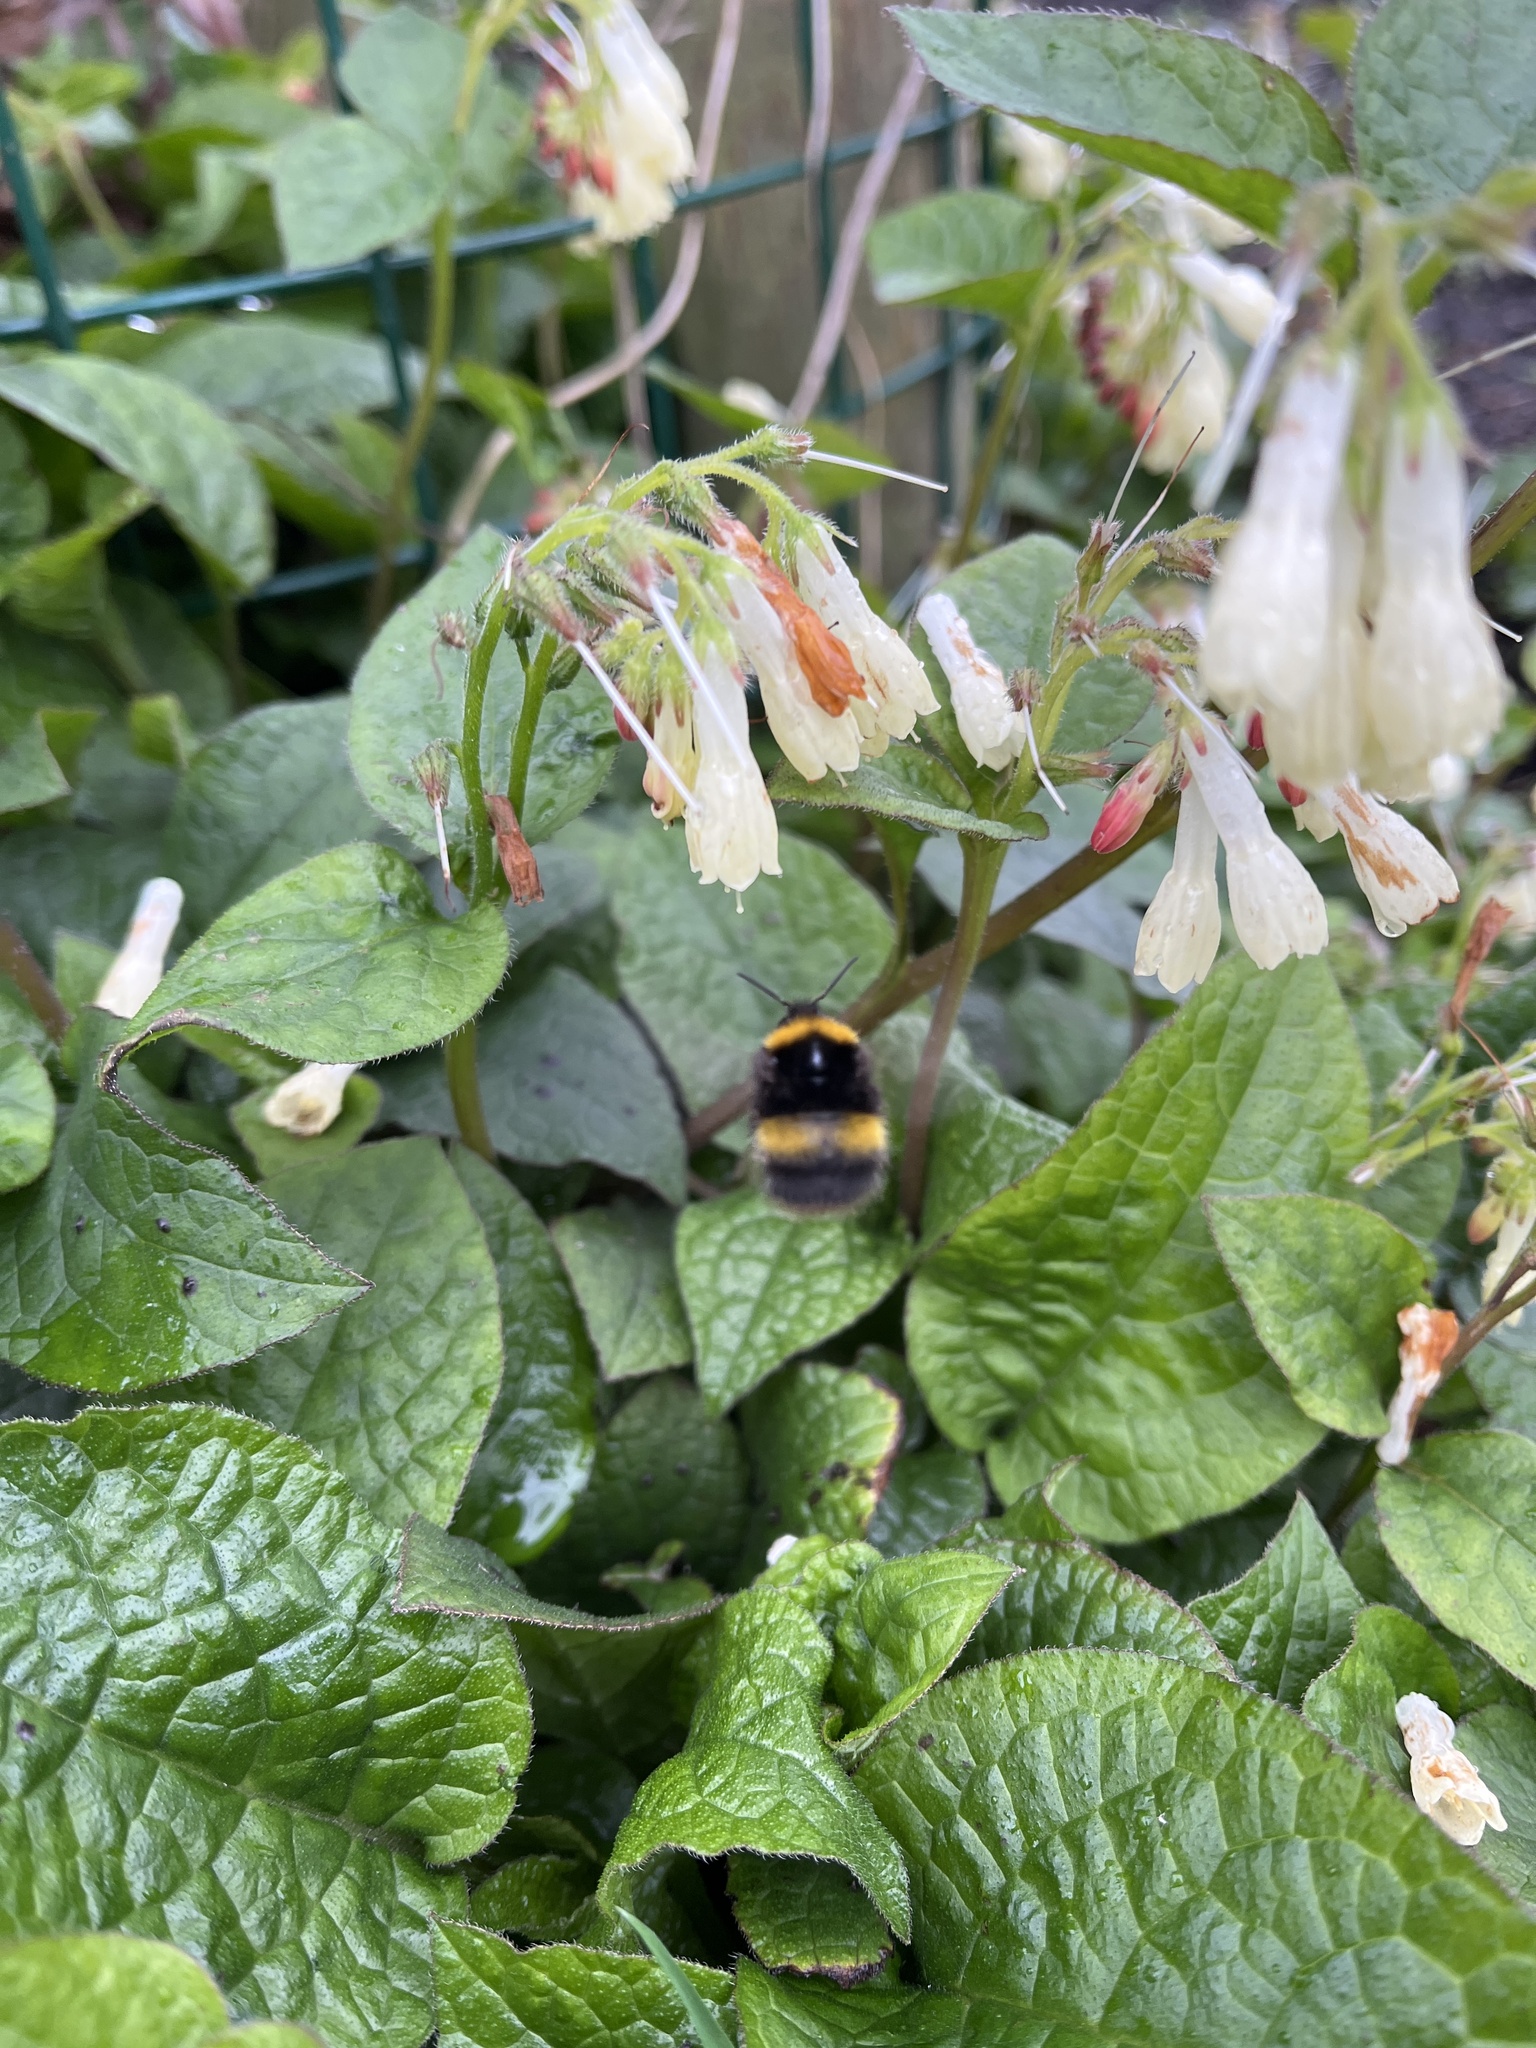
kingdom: Animalia
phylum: Arthropoda
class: Insecta
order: Hymenoptera
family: Apidae
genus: Bombus
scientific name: Bombus pratorum
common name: Early humble-bee
